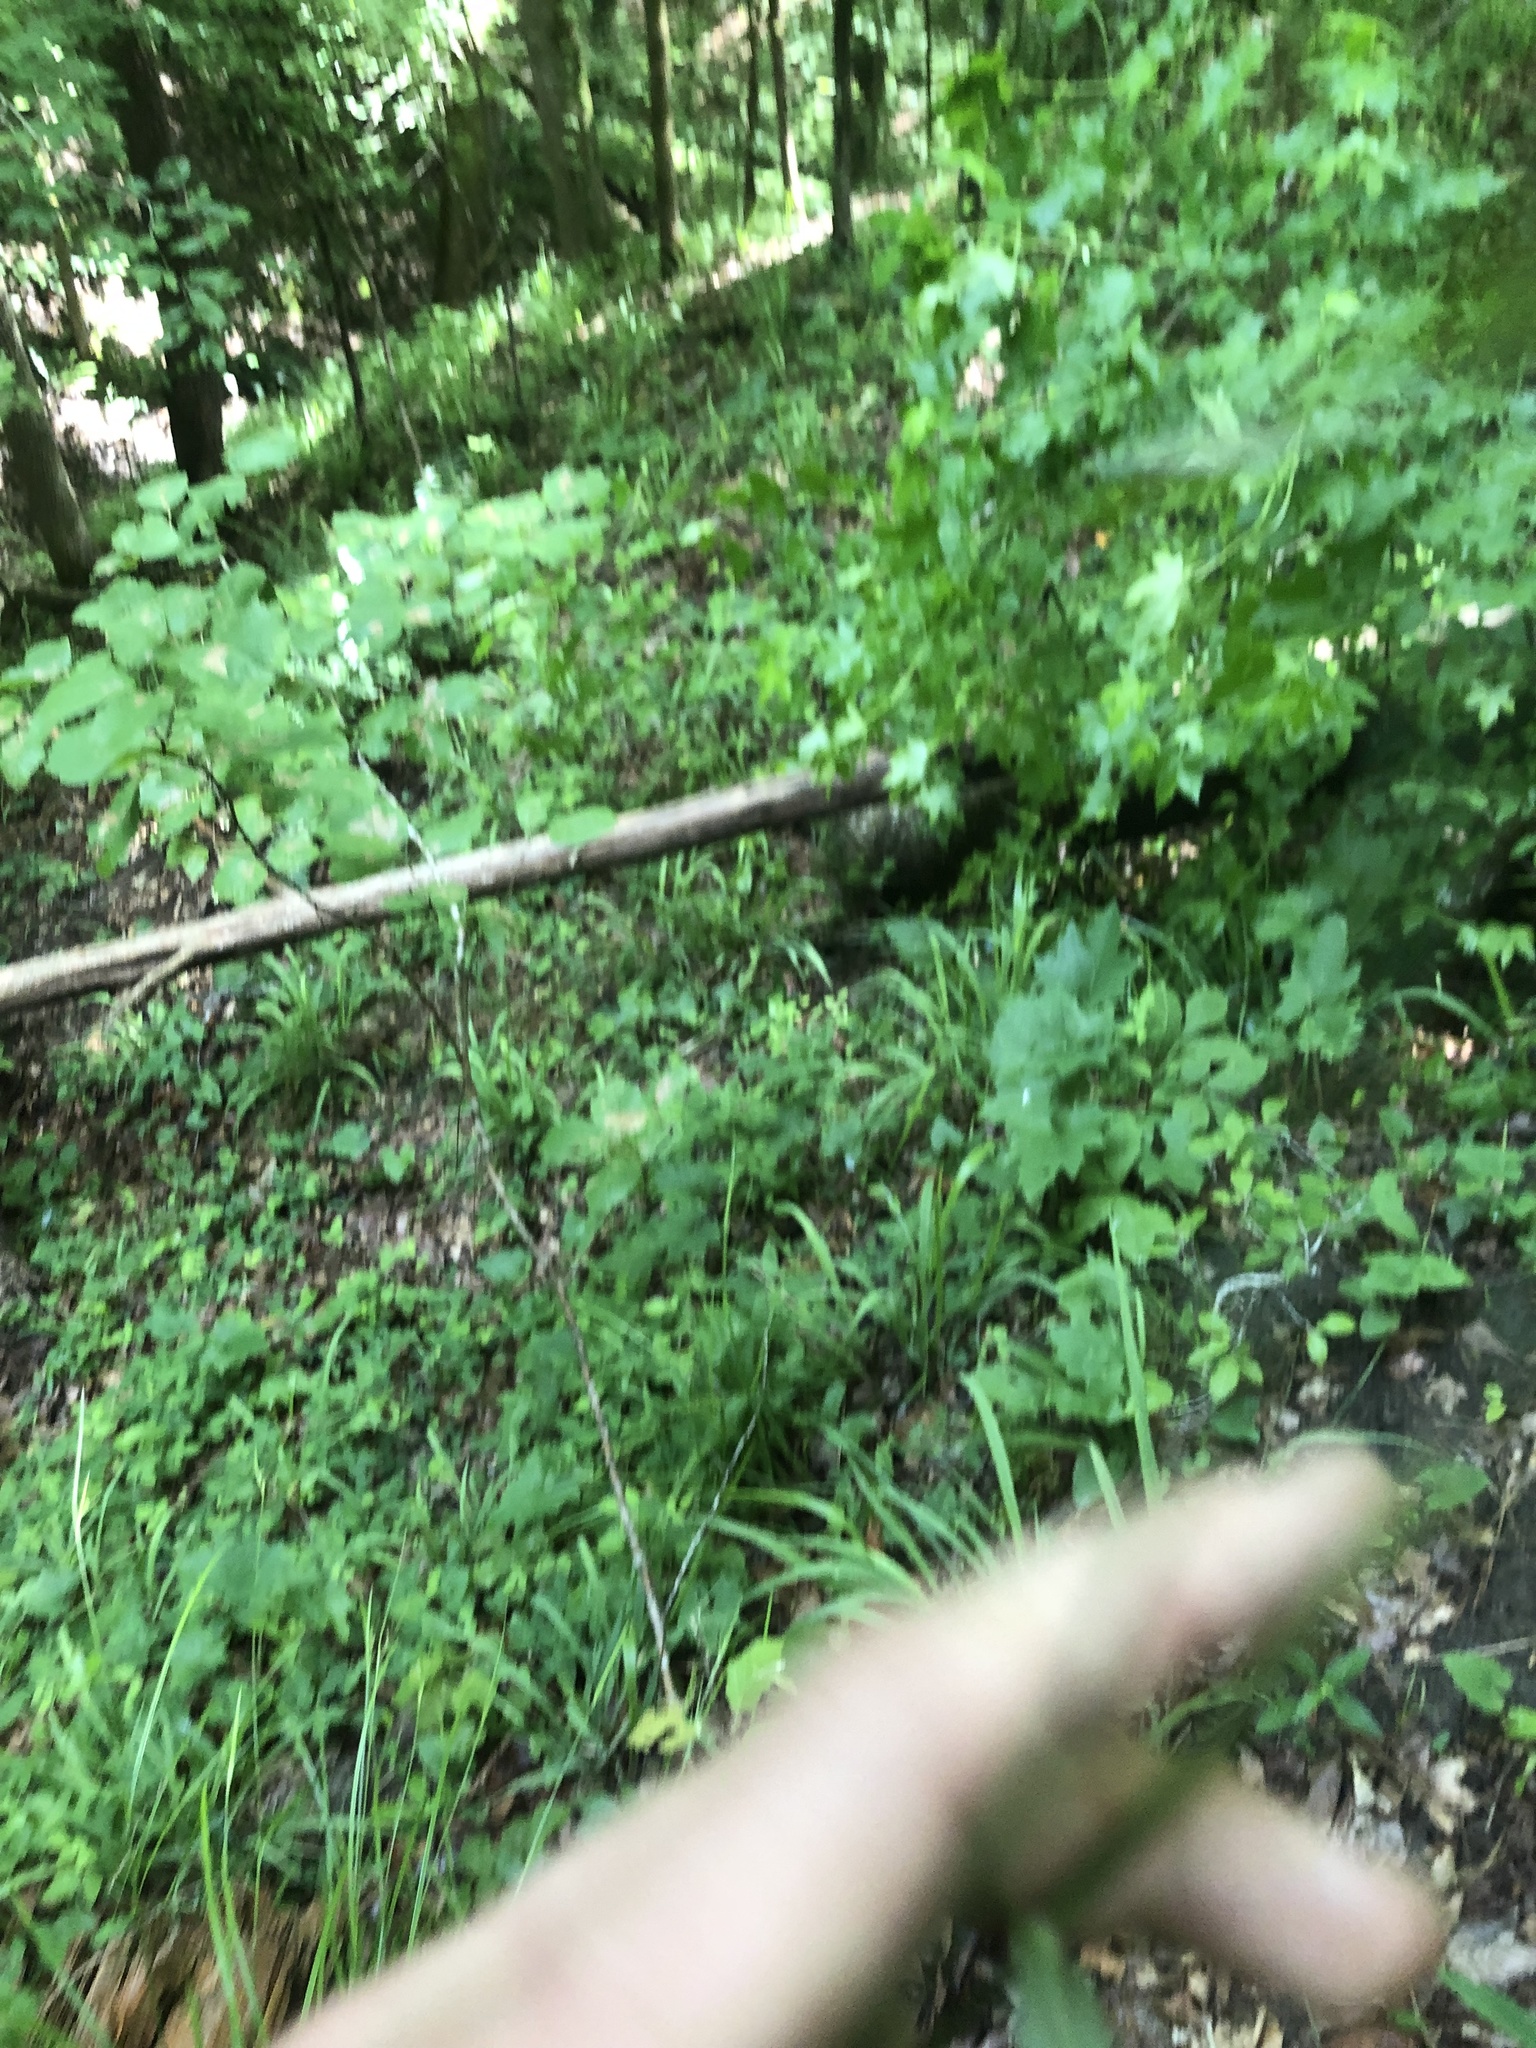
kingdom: Plantae
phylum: Tracheophyta
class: Liliopsida
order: Poales
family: Poaceae
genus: Dichanthelium
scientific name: Dichanthelium commutatum
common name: Variable witchgrass
